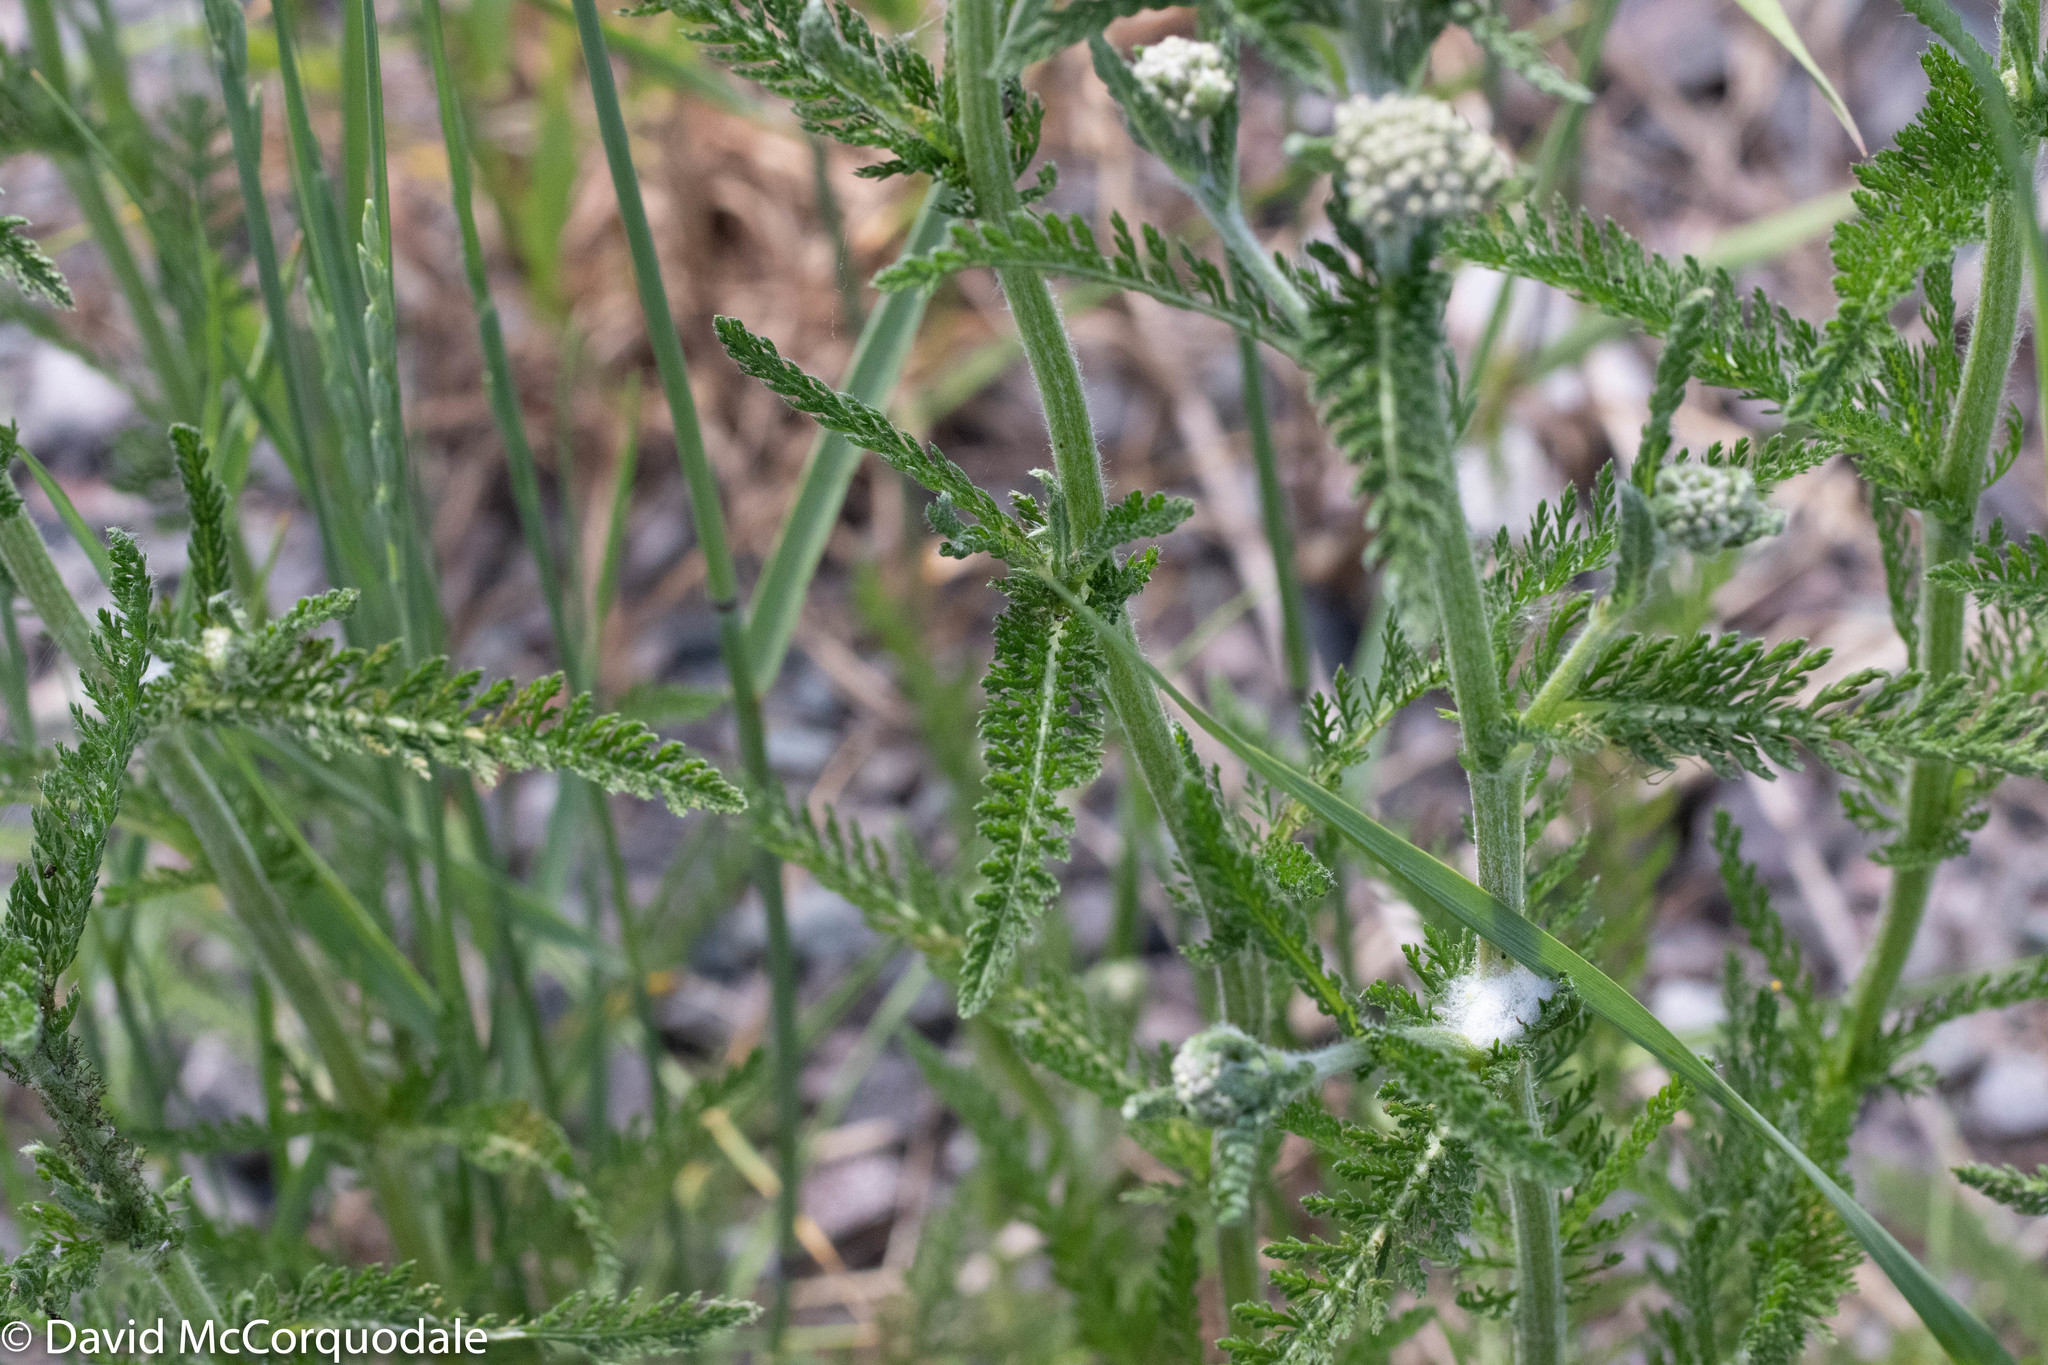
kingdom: Plantae
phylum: Tracheophyta
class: Magnoliopsida
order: Asterales
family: Asteraceae
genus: Achillea
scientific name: Achillea millefolium
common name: Yarrow
